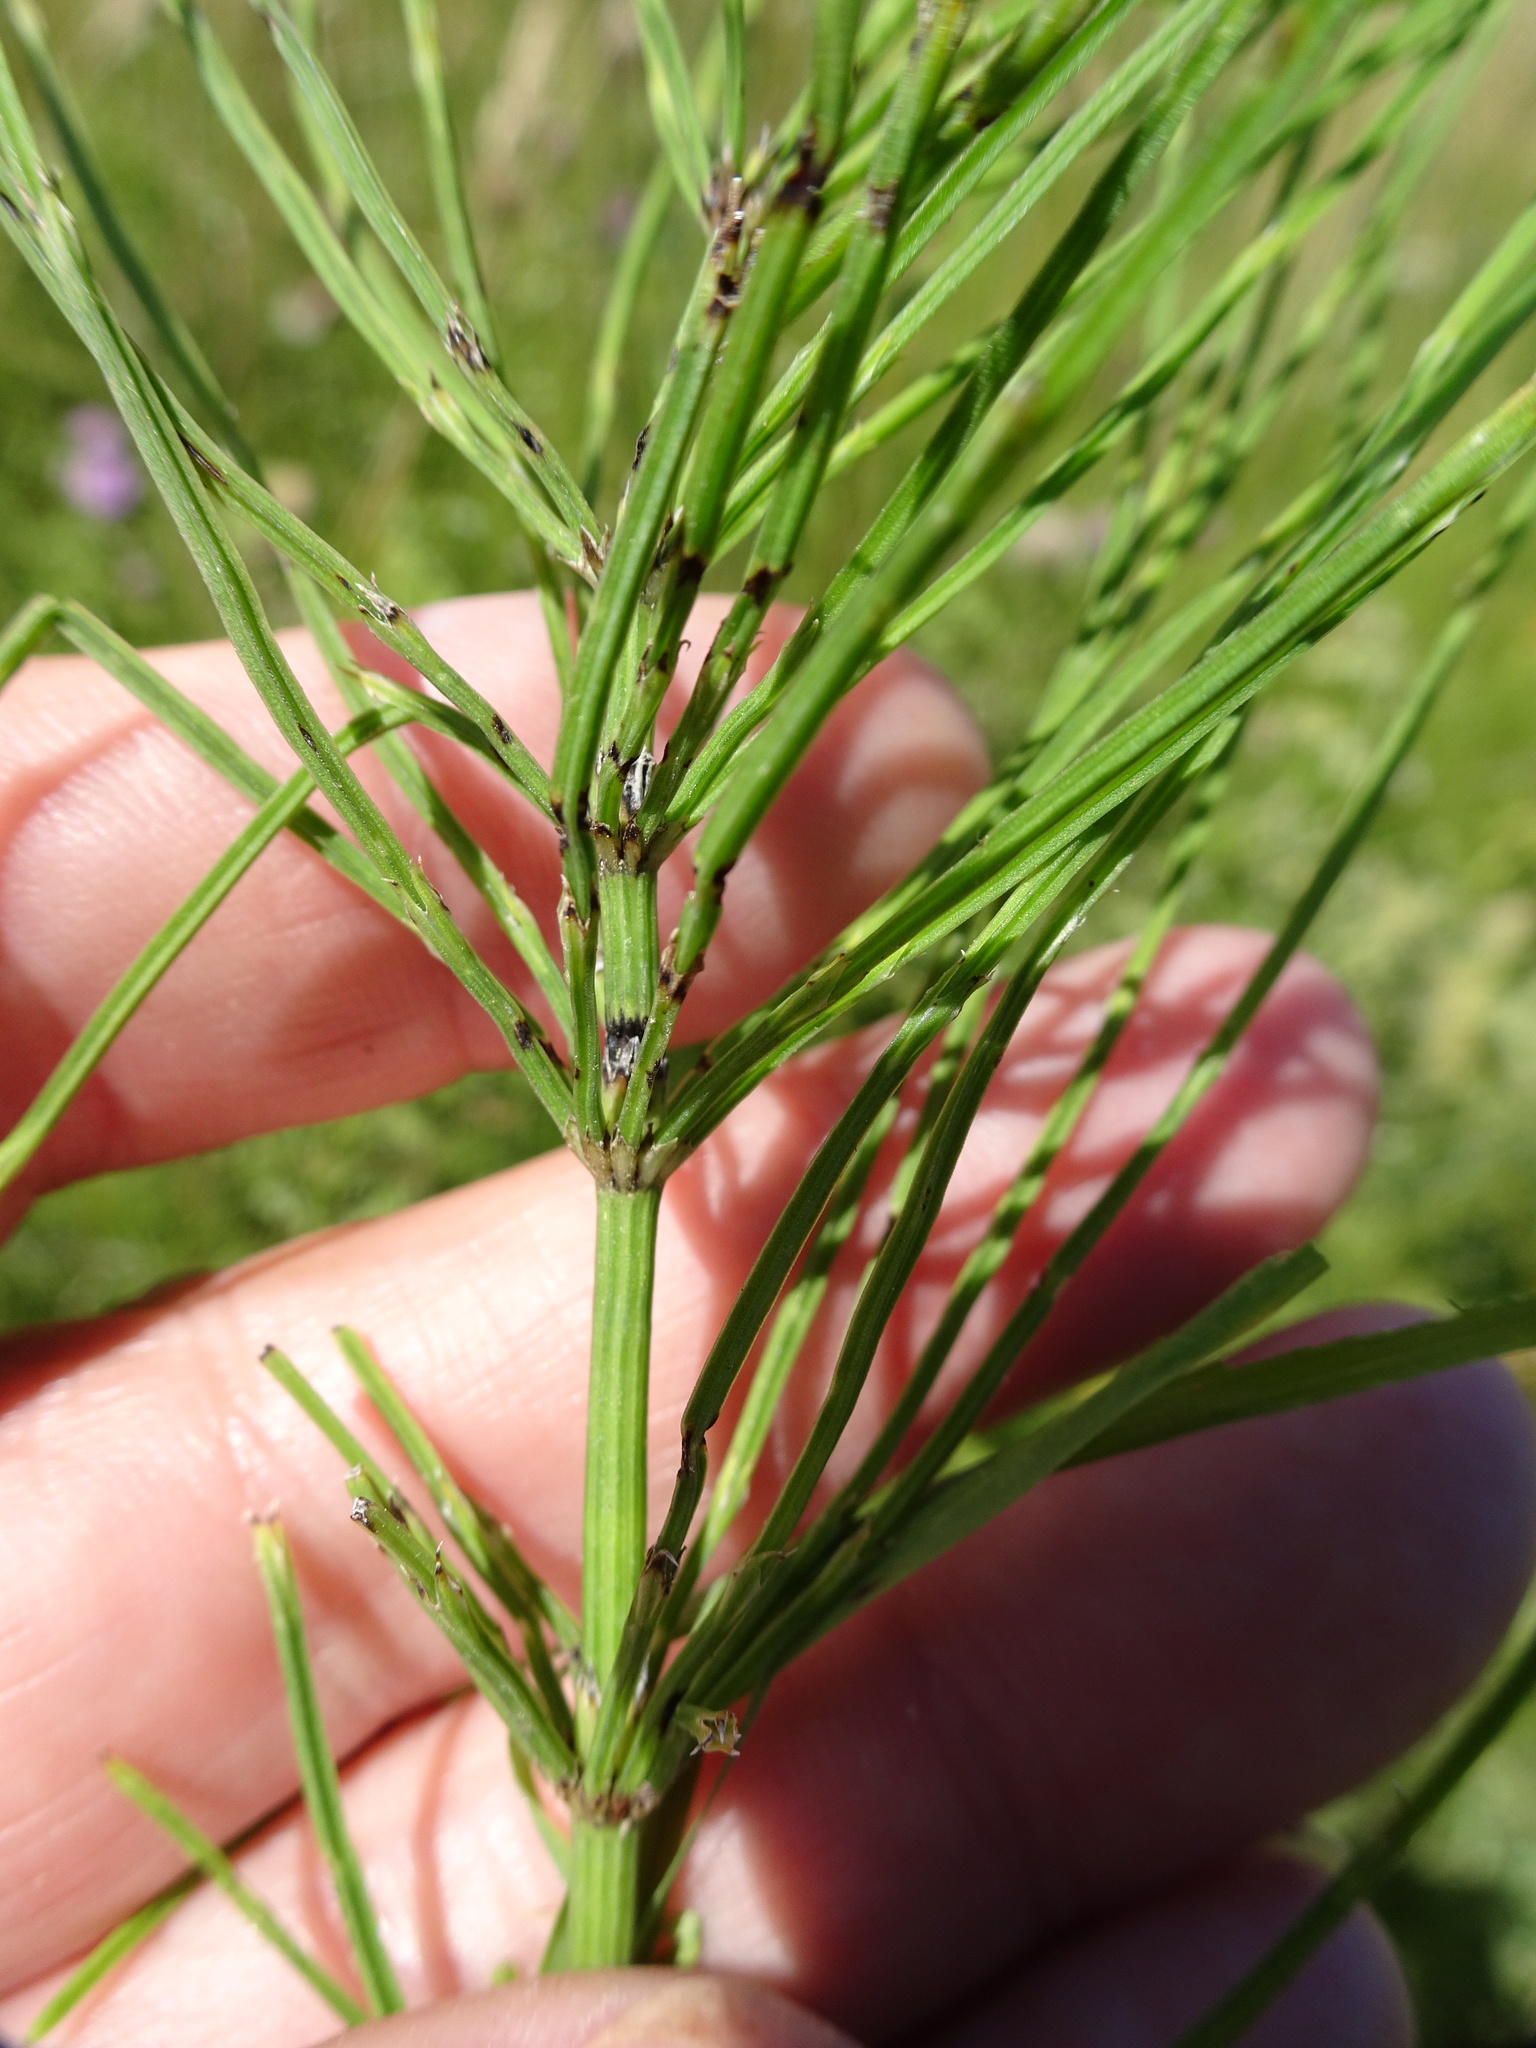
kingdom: Plantae
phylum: Tracheophyta
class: Polypodiopsida
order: Equisetales
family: Equisetaceae
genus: Equisetum
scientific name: Equisetum arvense
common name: Field horsetail
